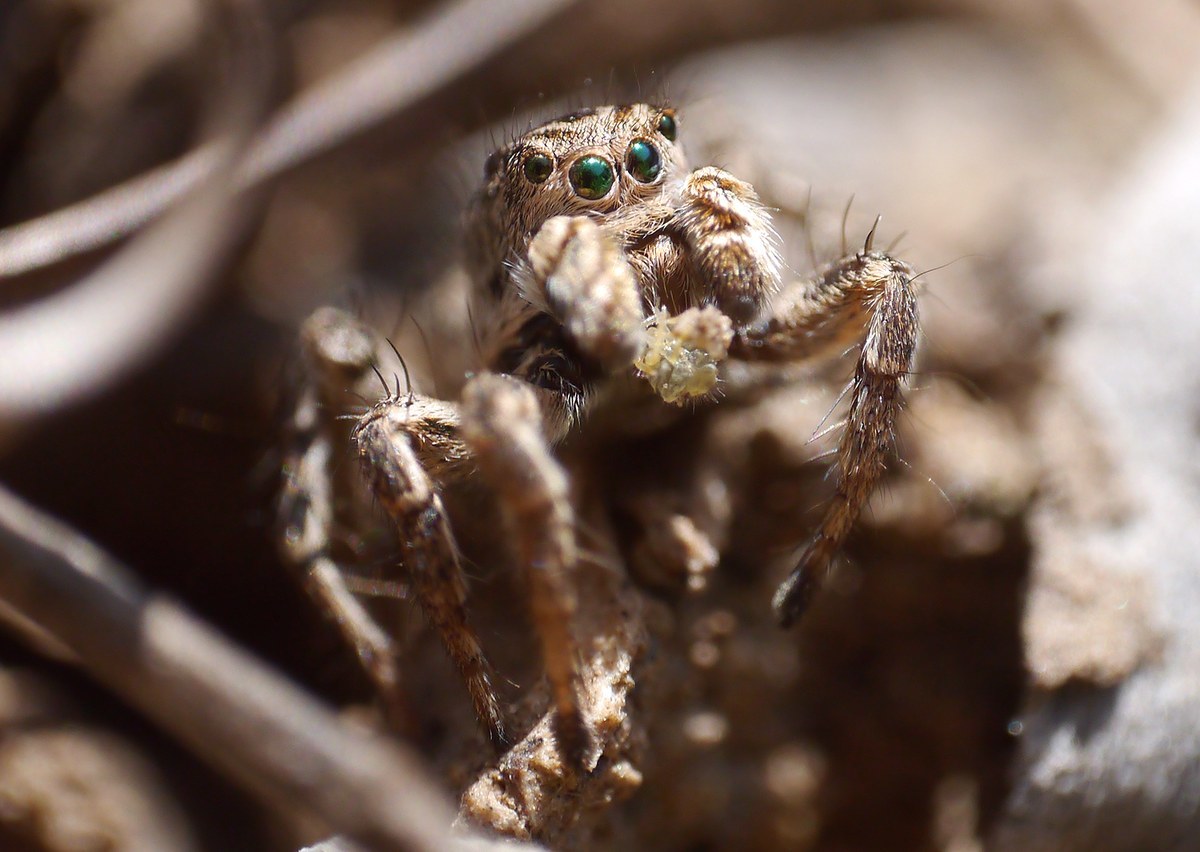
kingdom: Animalia
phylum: Arthropoda
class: Arachnida
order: Araneae
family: Salticidae
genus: Aelurillus
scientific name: Aelurillus v-insignitus
